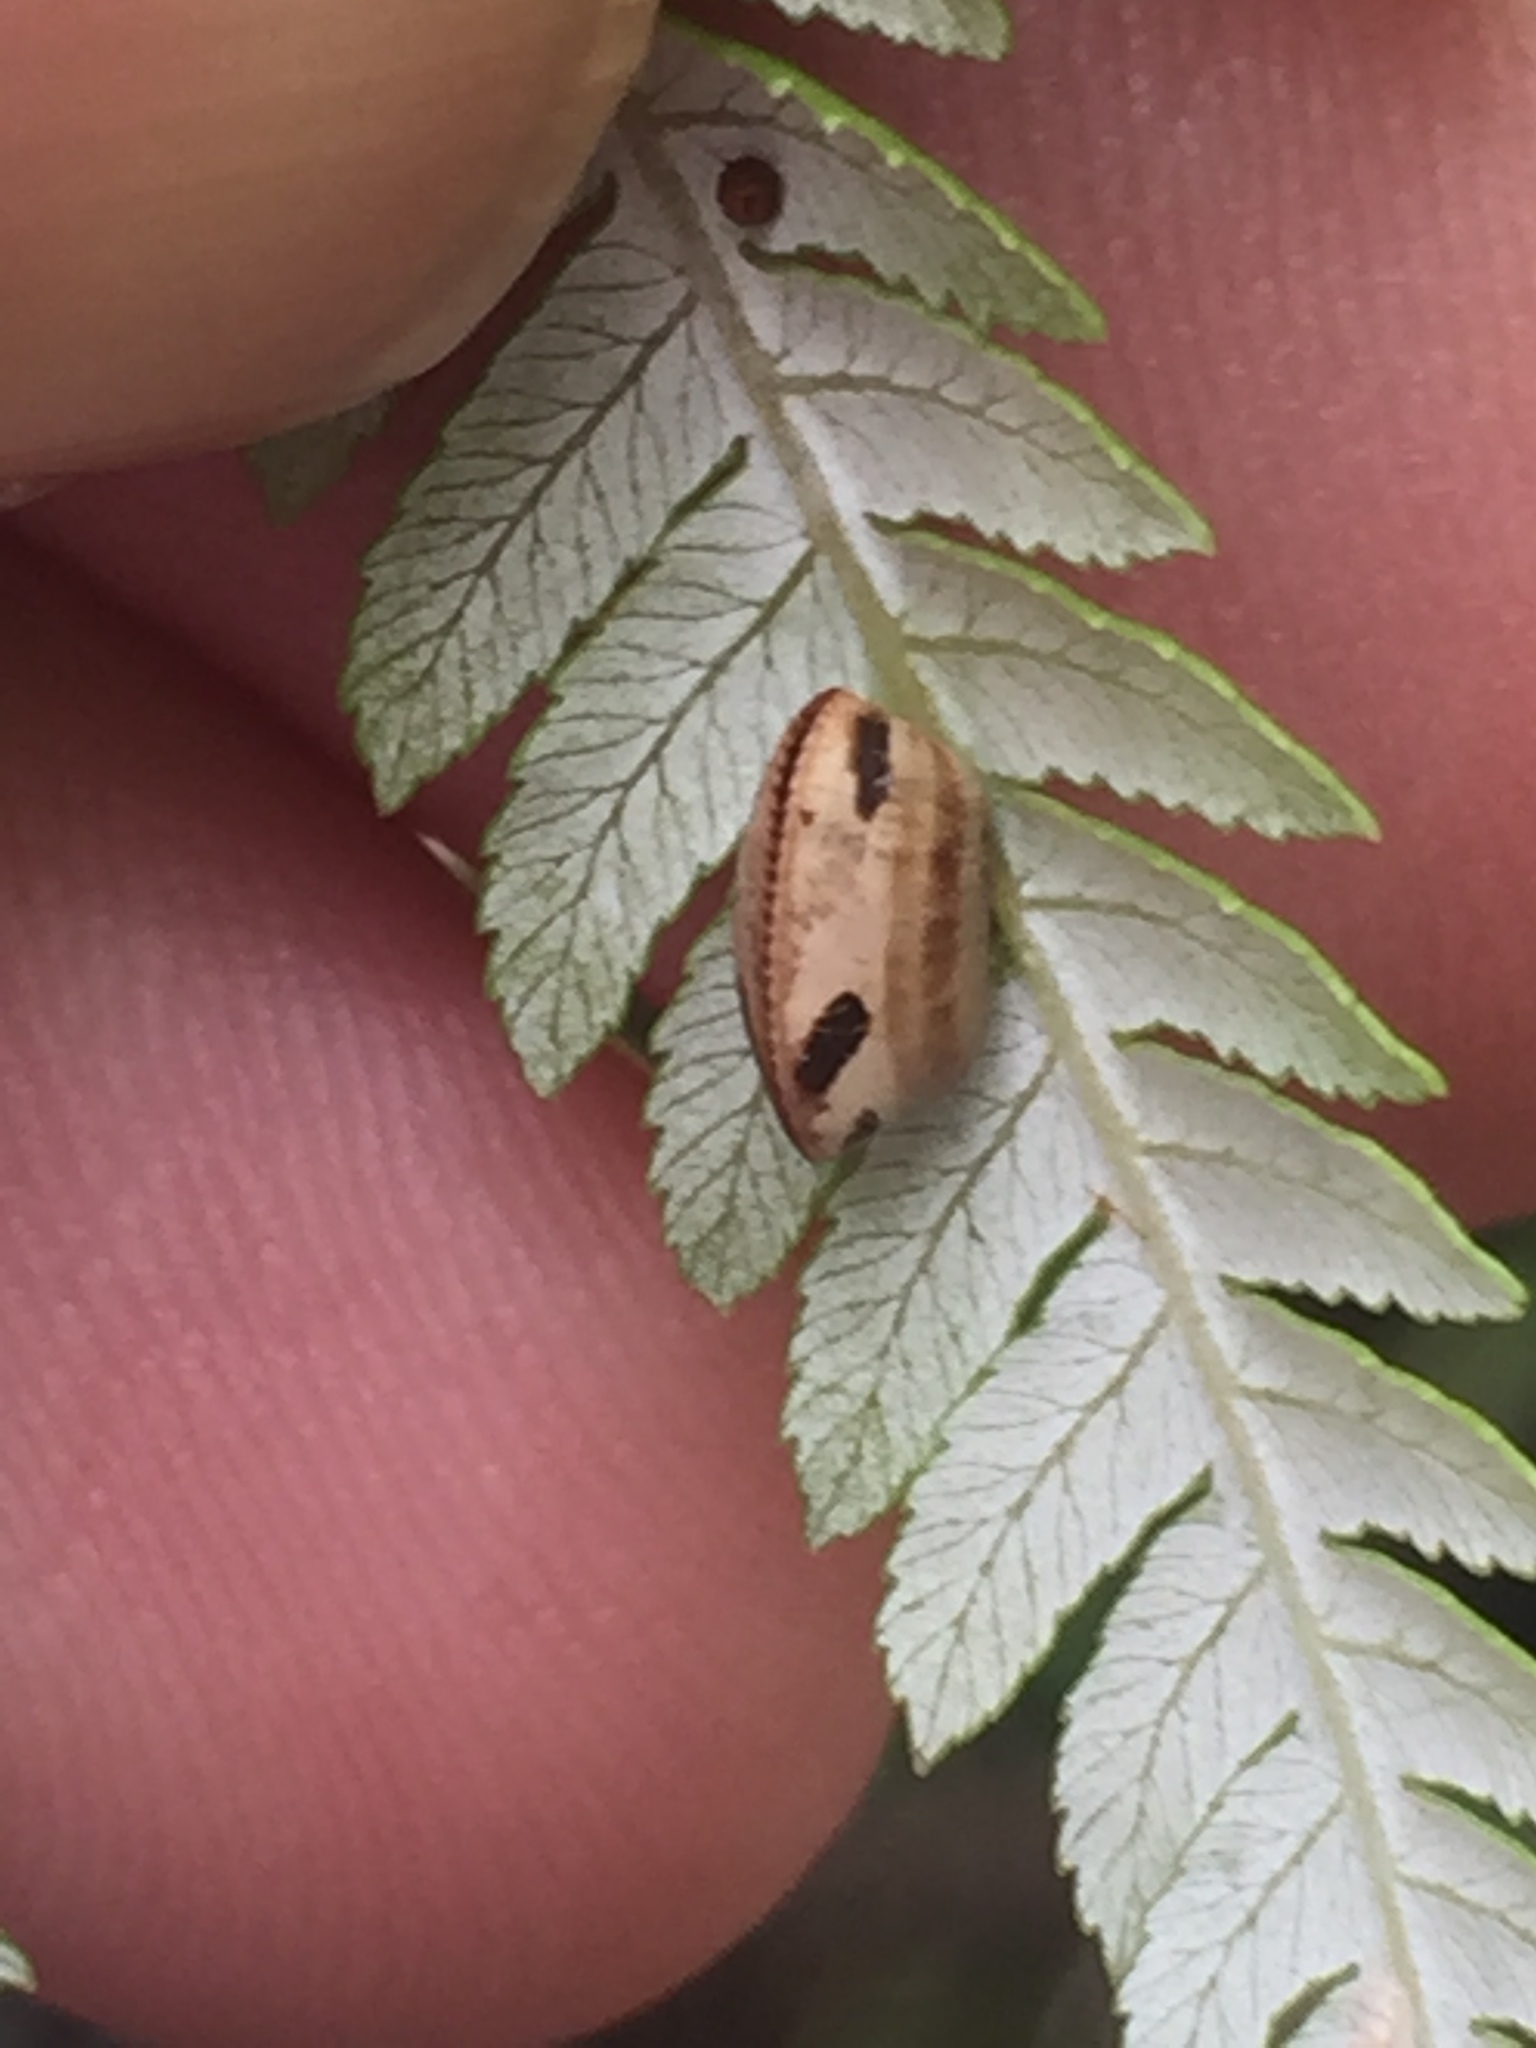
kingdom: Animalia
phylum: Arthropoda
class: Insecta
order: Blattodea
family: Ectobiidae
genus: Balta
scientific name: Balta bicolor
